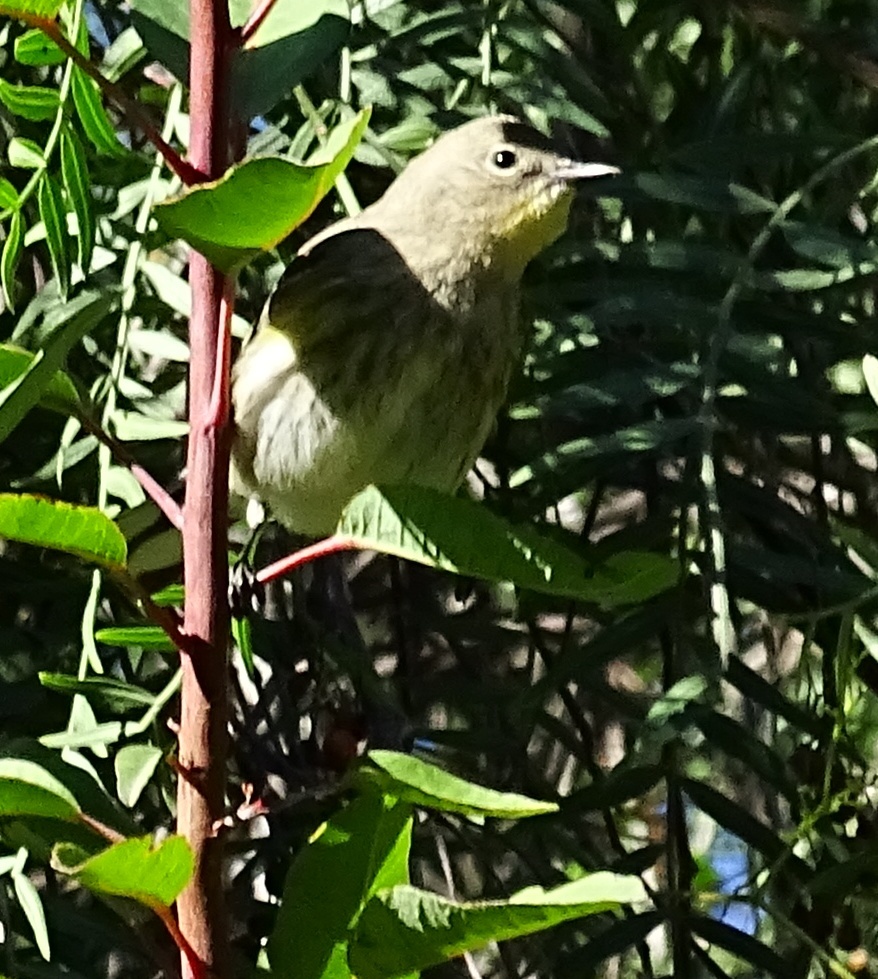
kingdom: Animalia
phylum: Chordata
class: Aves
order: Passeriformes
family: Parulidae
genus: Setophaga
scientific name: Setophaga coronata
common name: Myrtle warbler
